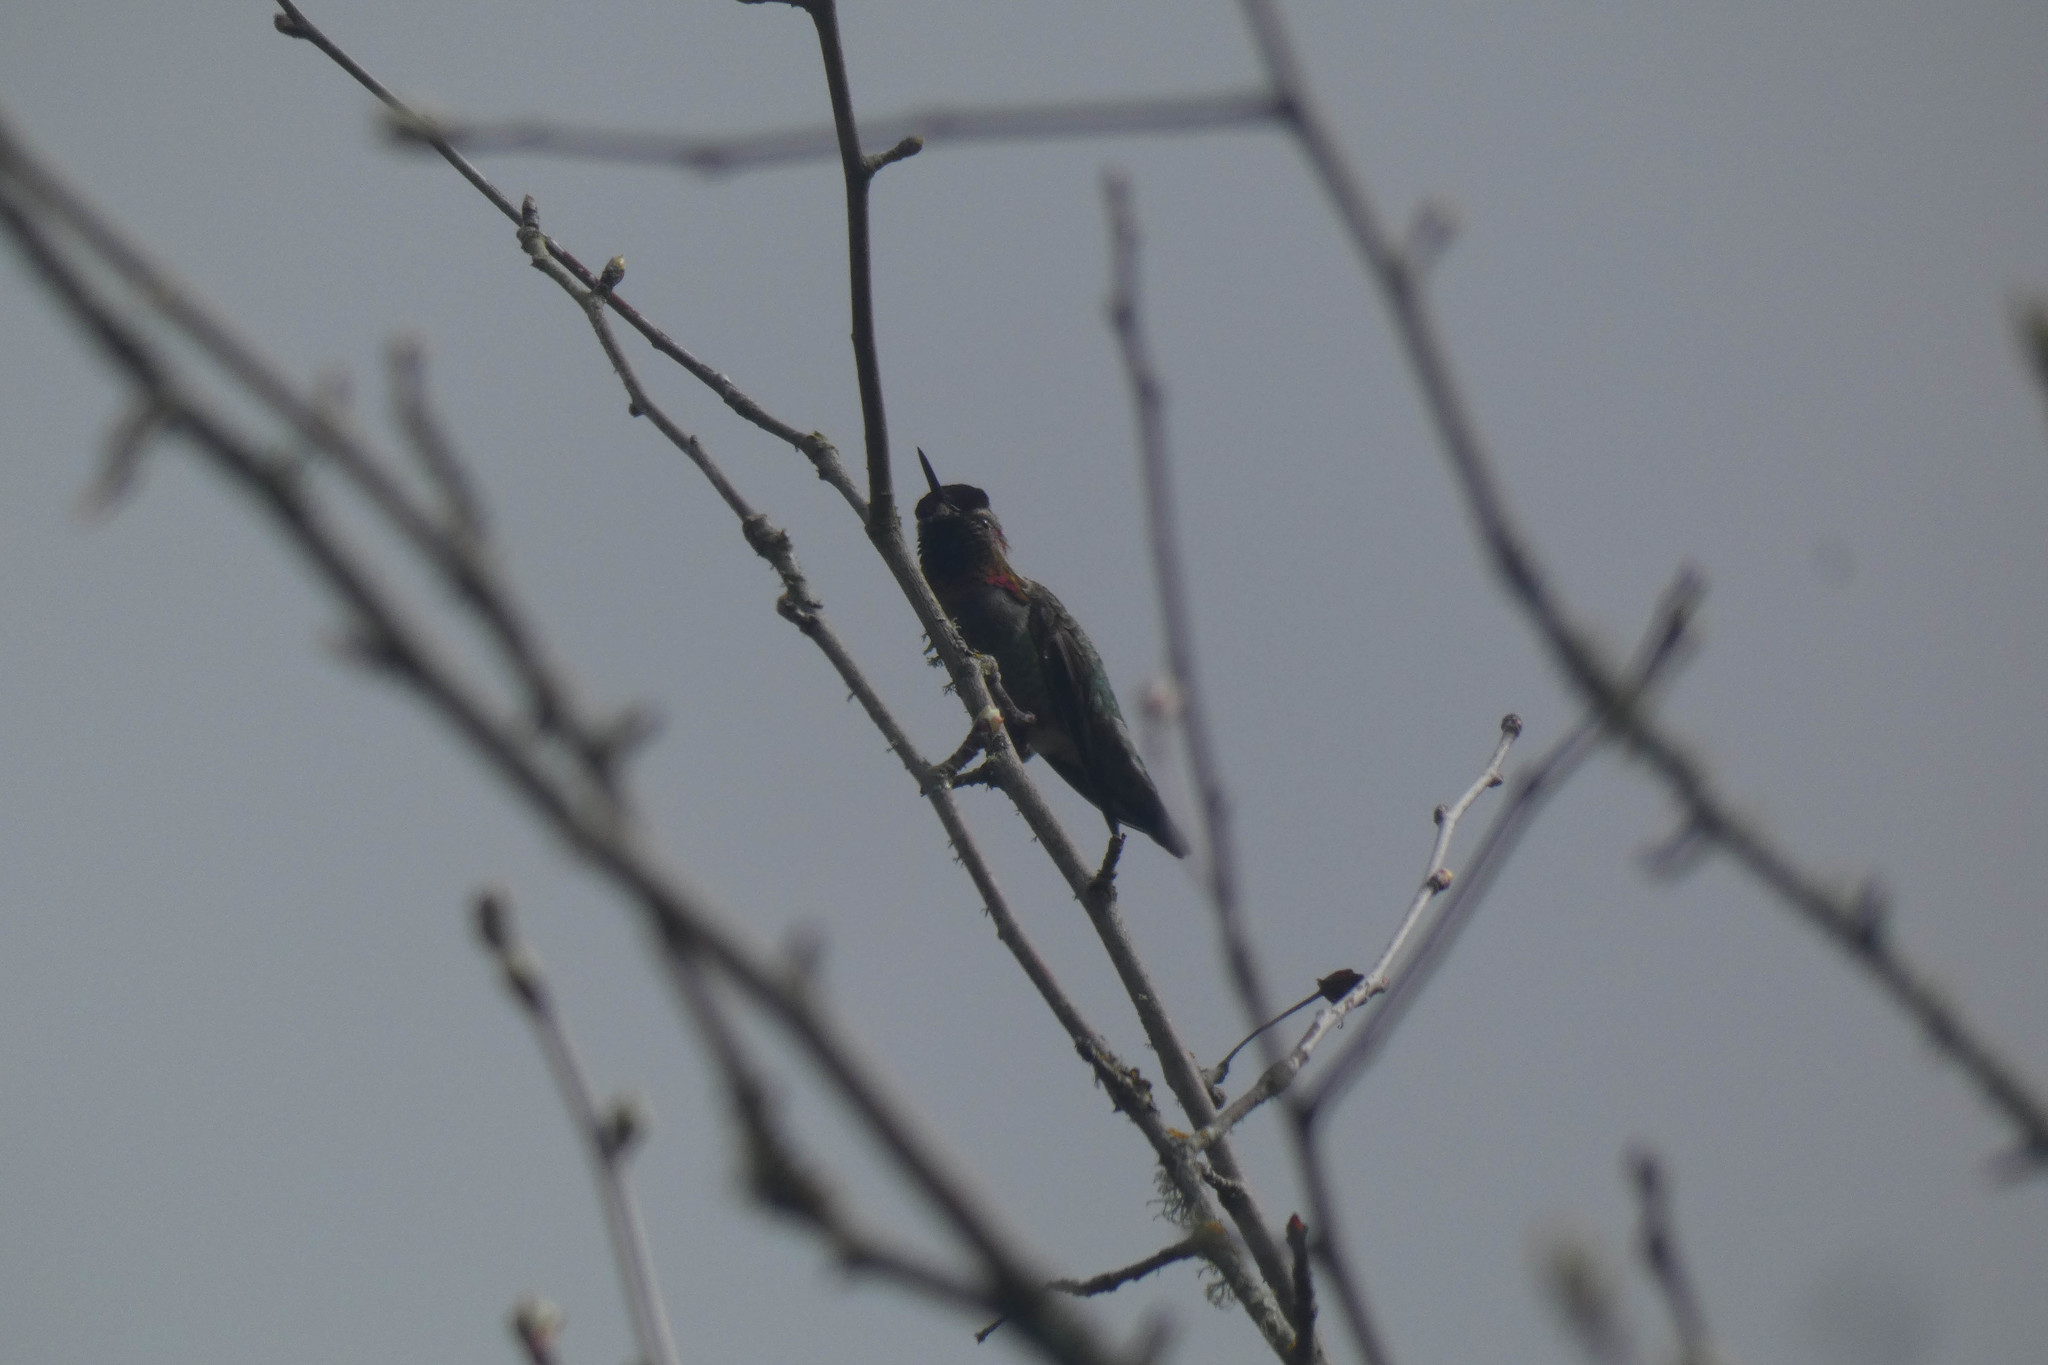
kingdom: Animalia
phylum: Chordata
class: Aves
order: Apodiformes
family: Trochilidae
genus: Calypte
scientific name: Calypte anna
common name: Anna's hummingbird
